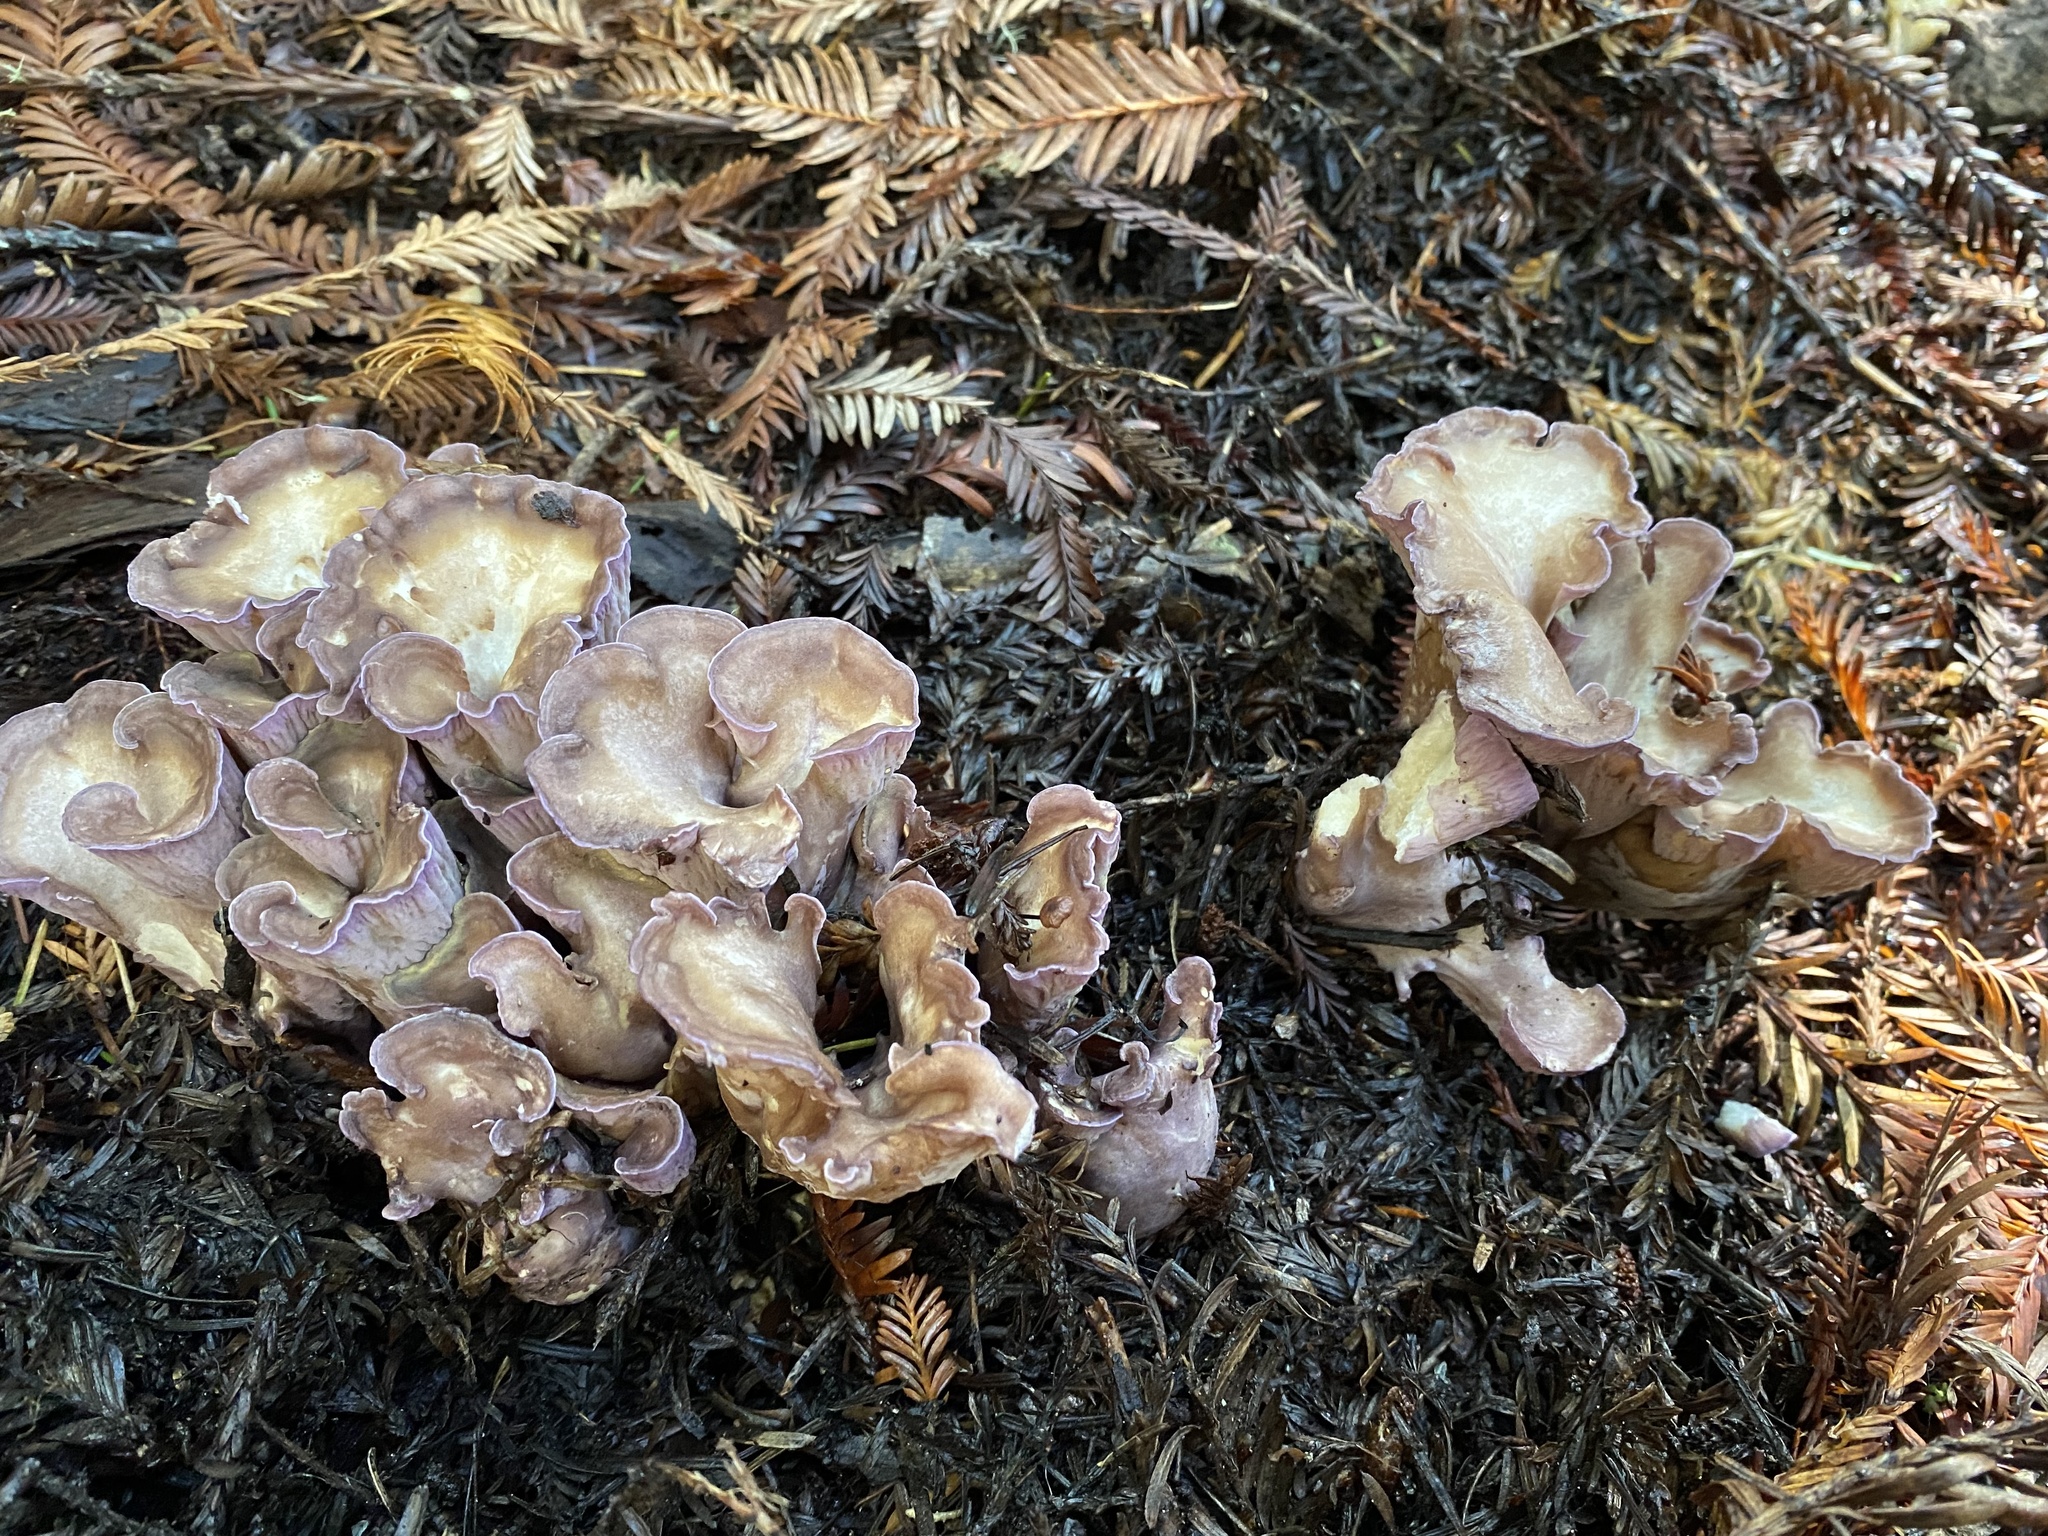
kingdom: Fungi
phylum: Basidiomycota
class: Agaricomycetes
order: Gomphales
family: Gomphaceae
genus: Gomphus
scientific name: Gomphus clavatus
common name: Pig's ear
